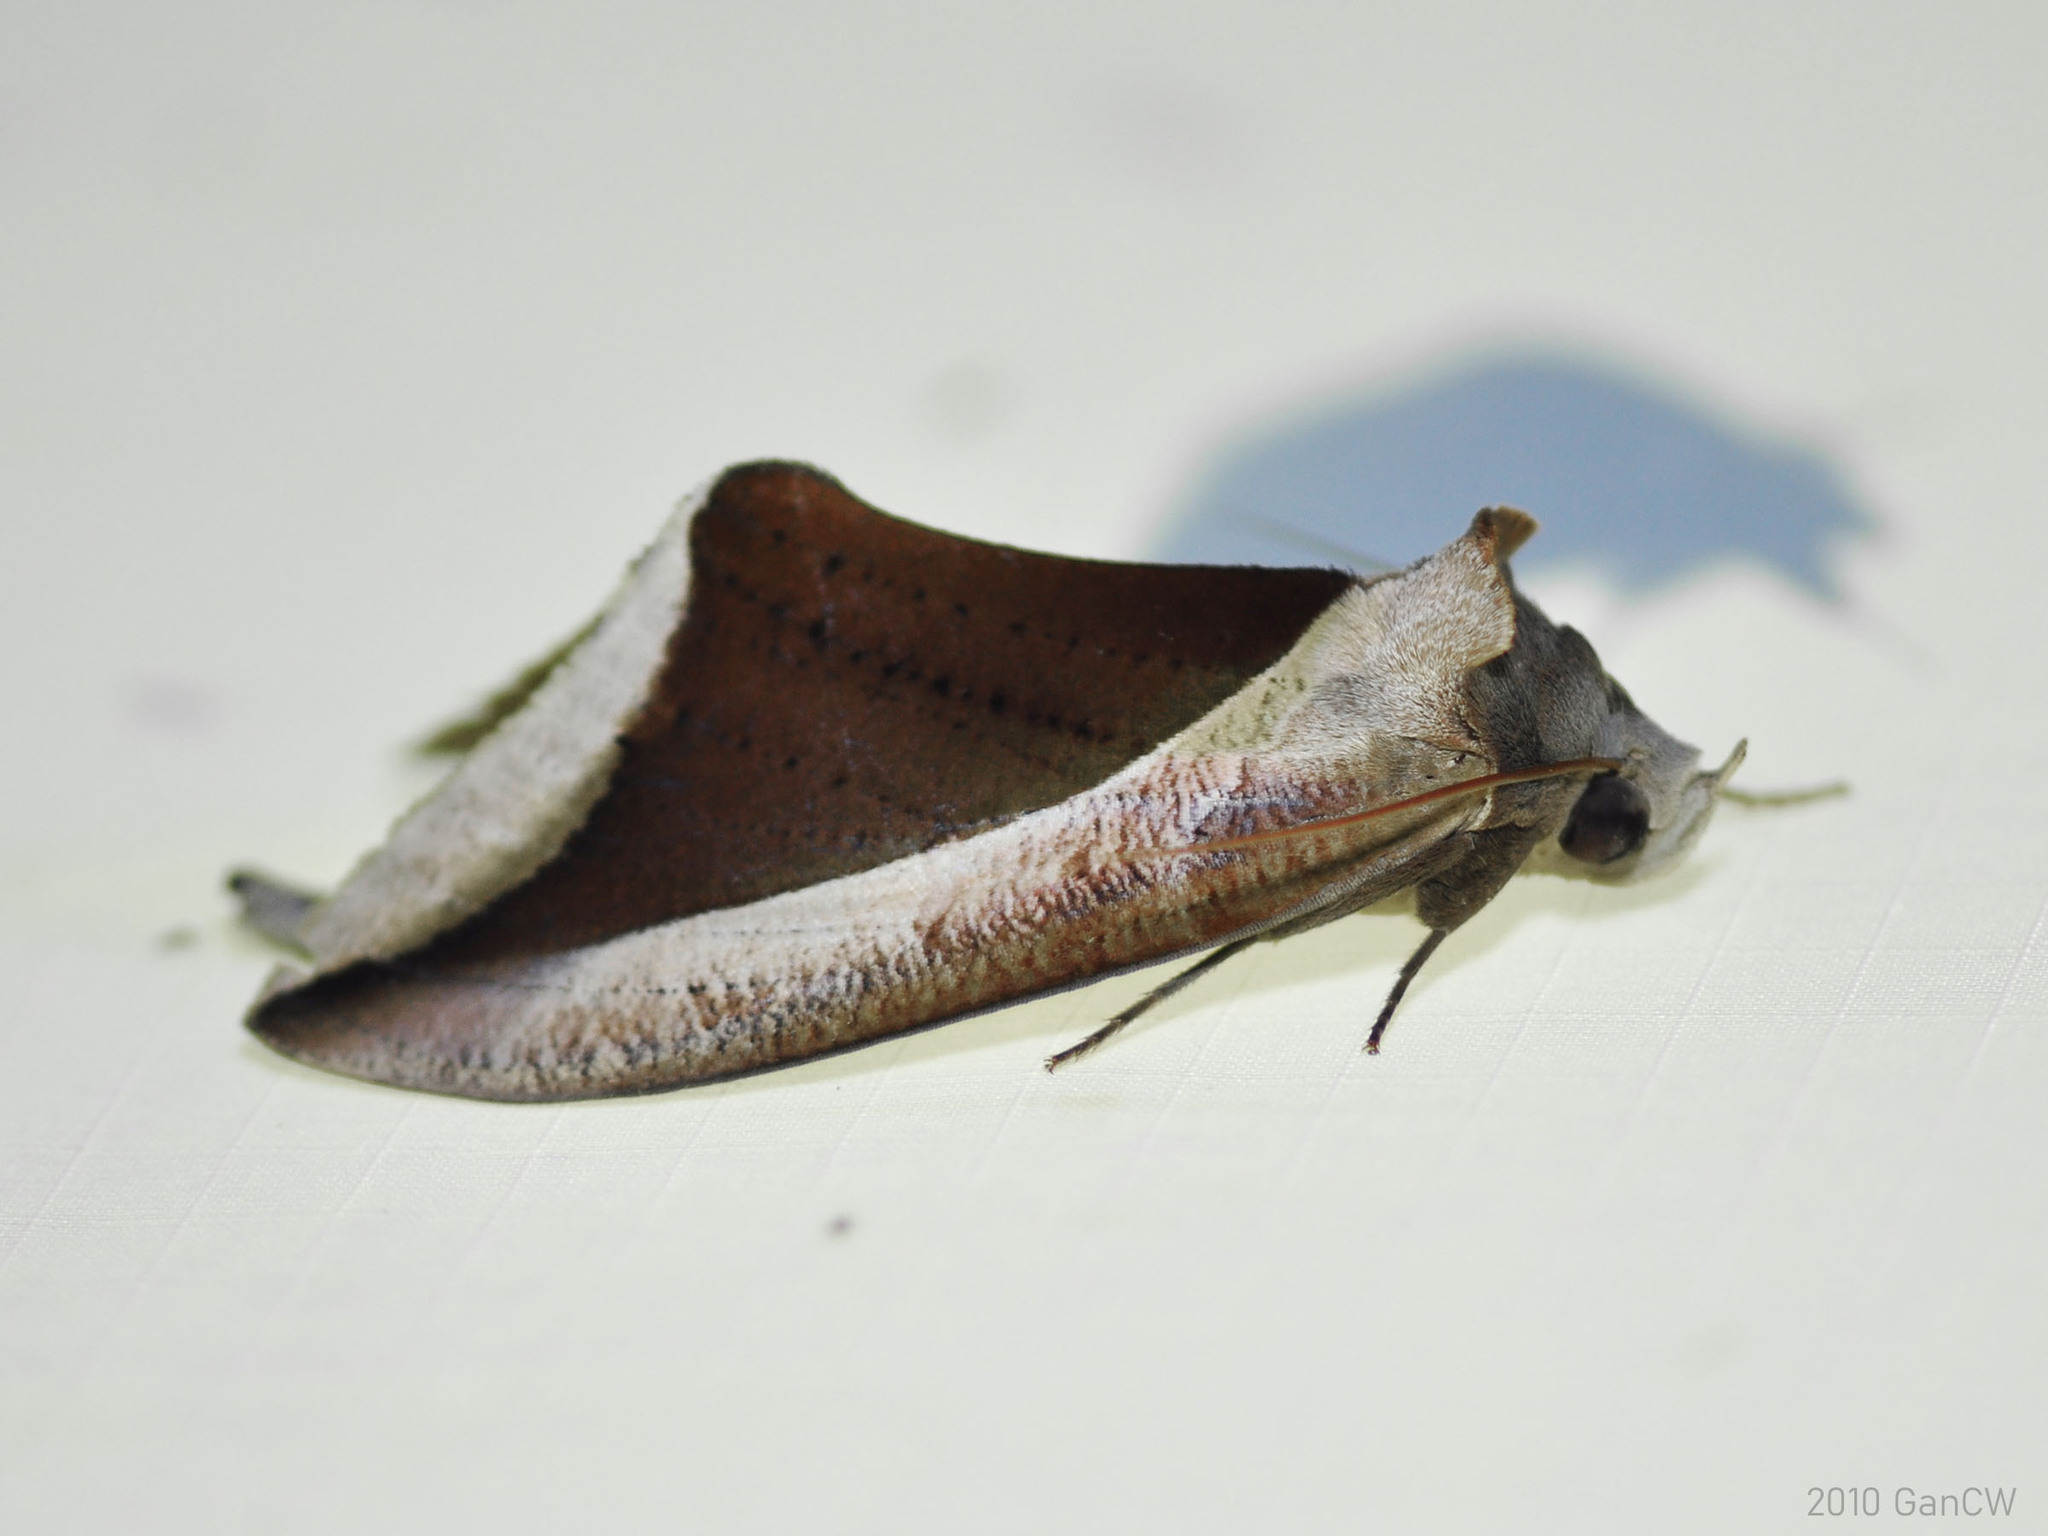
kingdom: Animalia
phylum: Arthropoda
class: Insecta
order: Lepidoptera
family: Erebidae
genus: Eudocima
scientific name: Eudocima dividens
